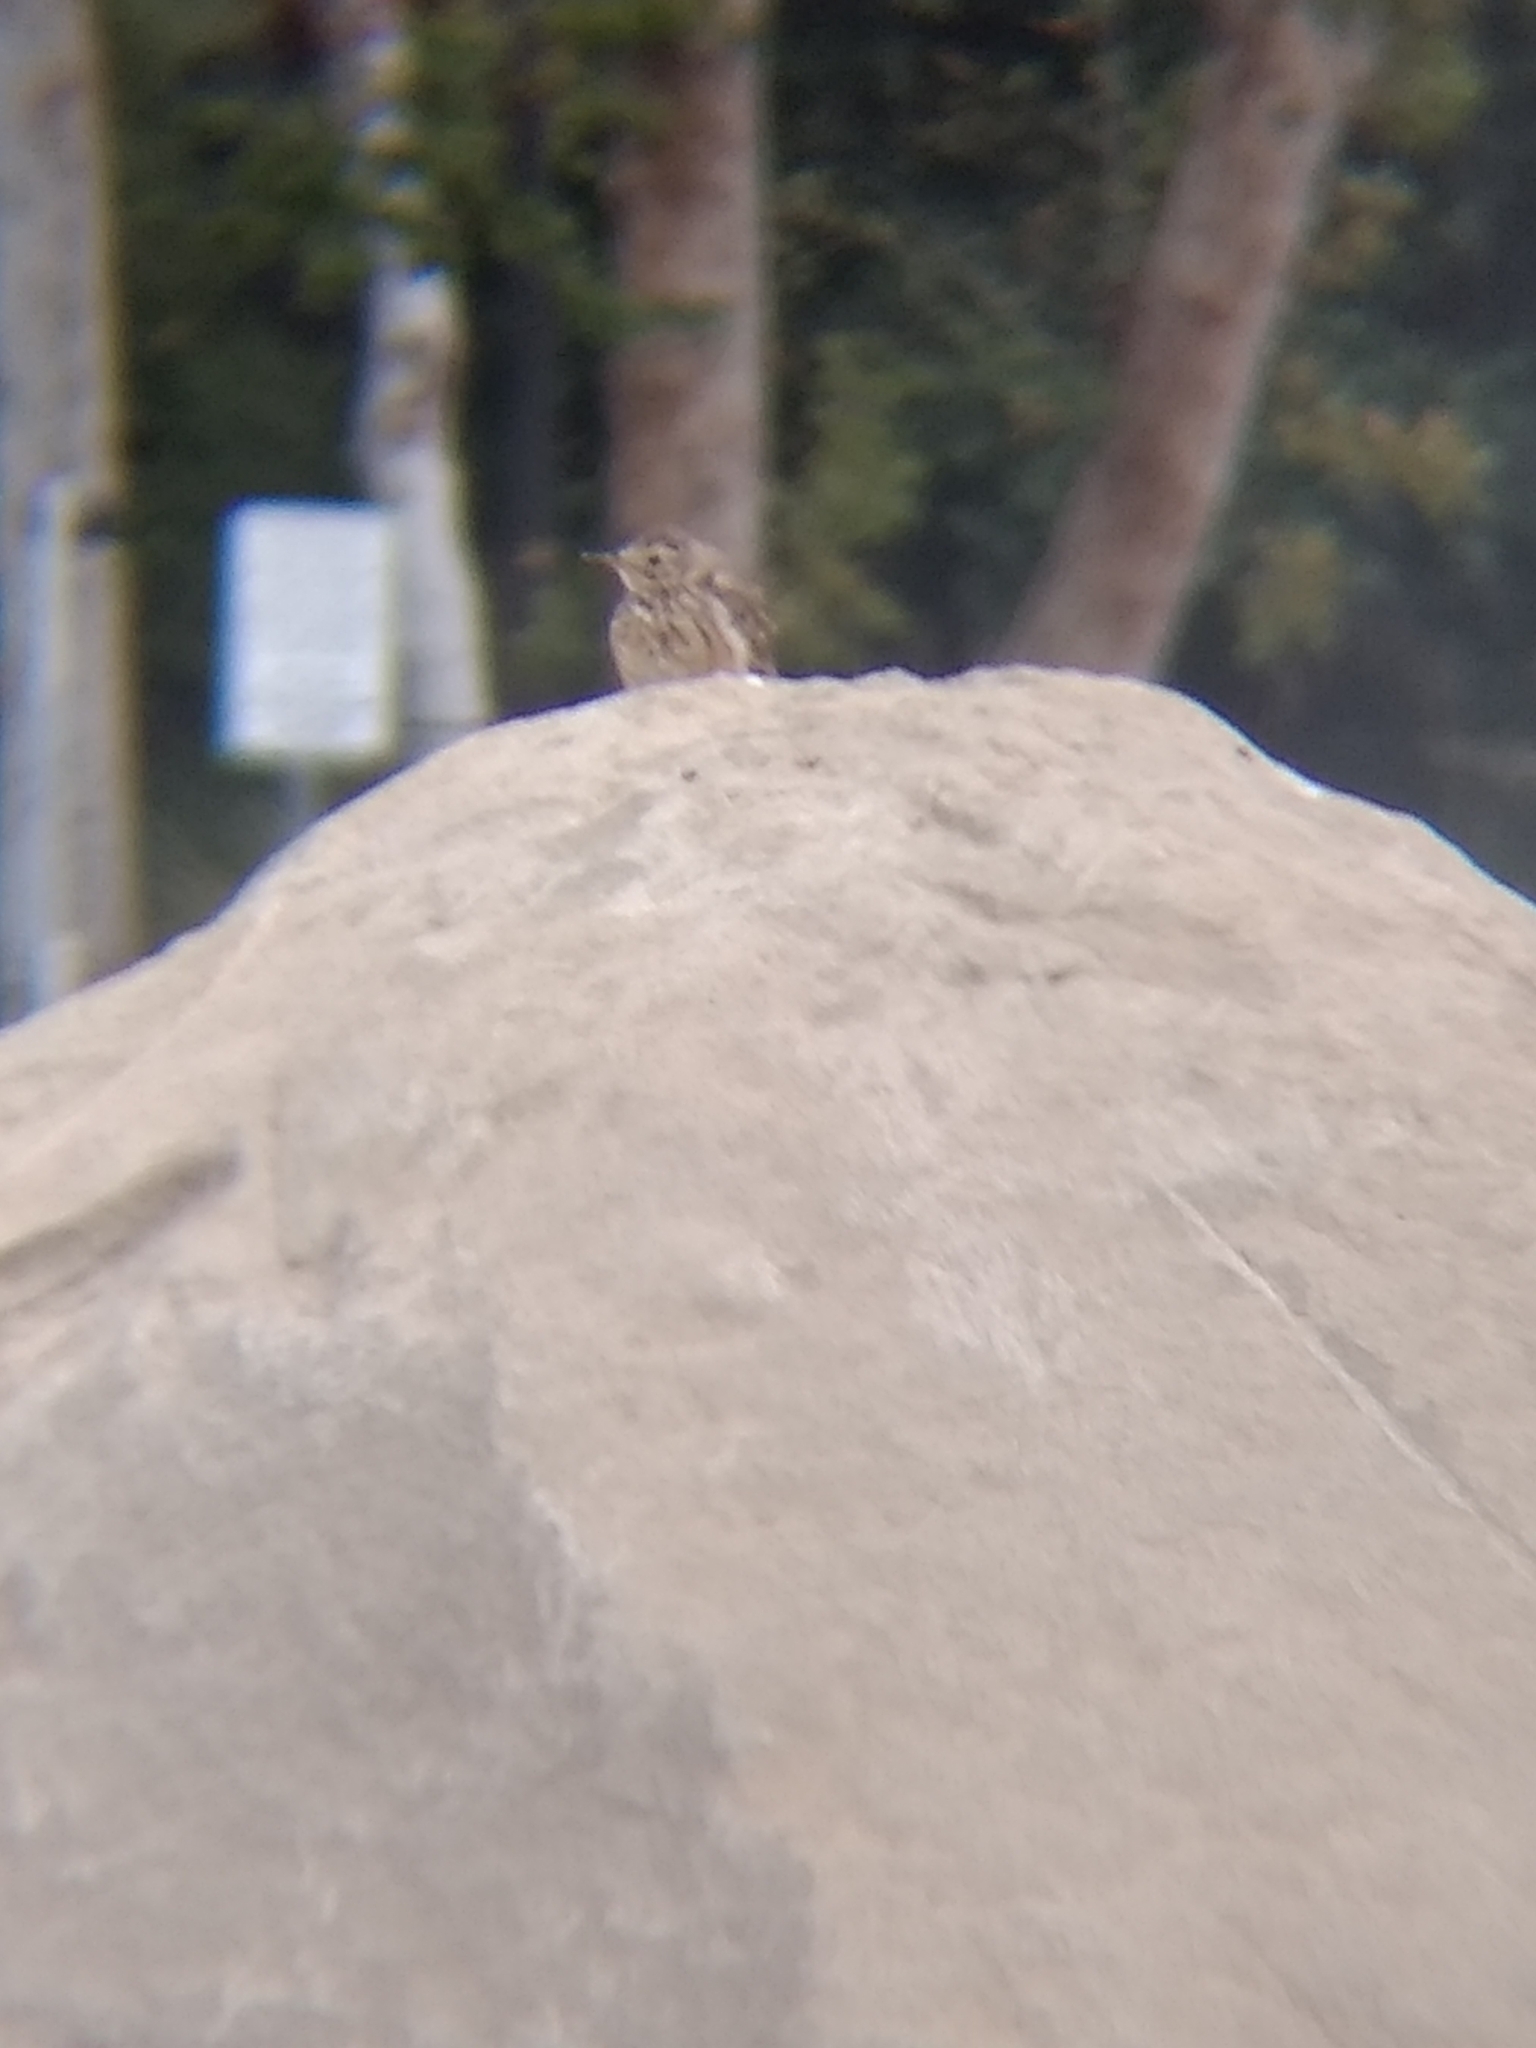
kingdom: Animalia
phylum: Chordata
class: Aves
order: Passeriformes
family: Motacillidae
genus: Anthus
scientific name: Anthus rubescens
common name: Buff-bellied pipit
